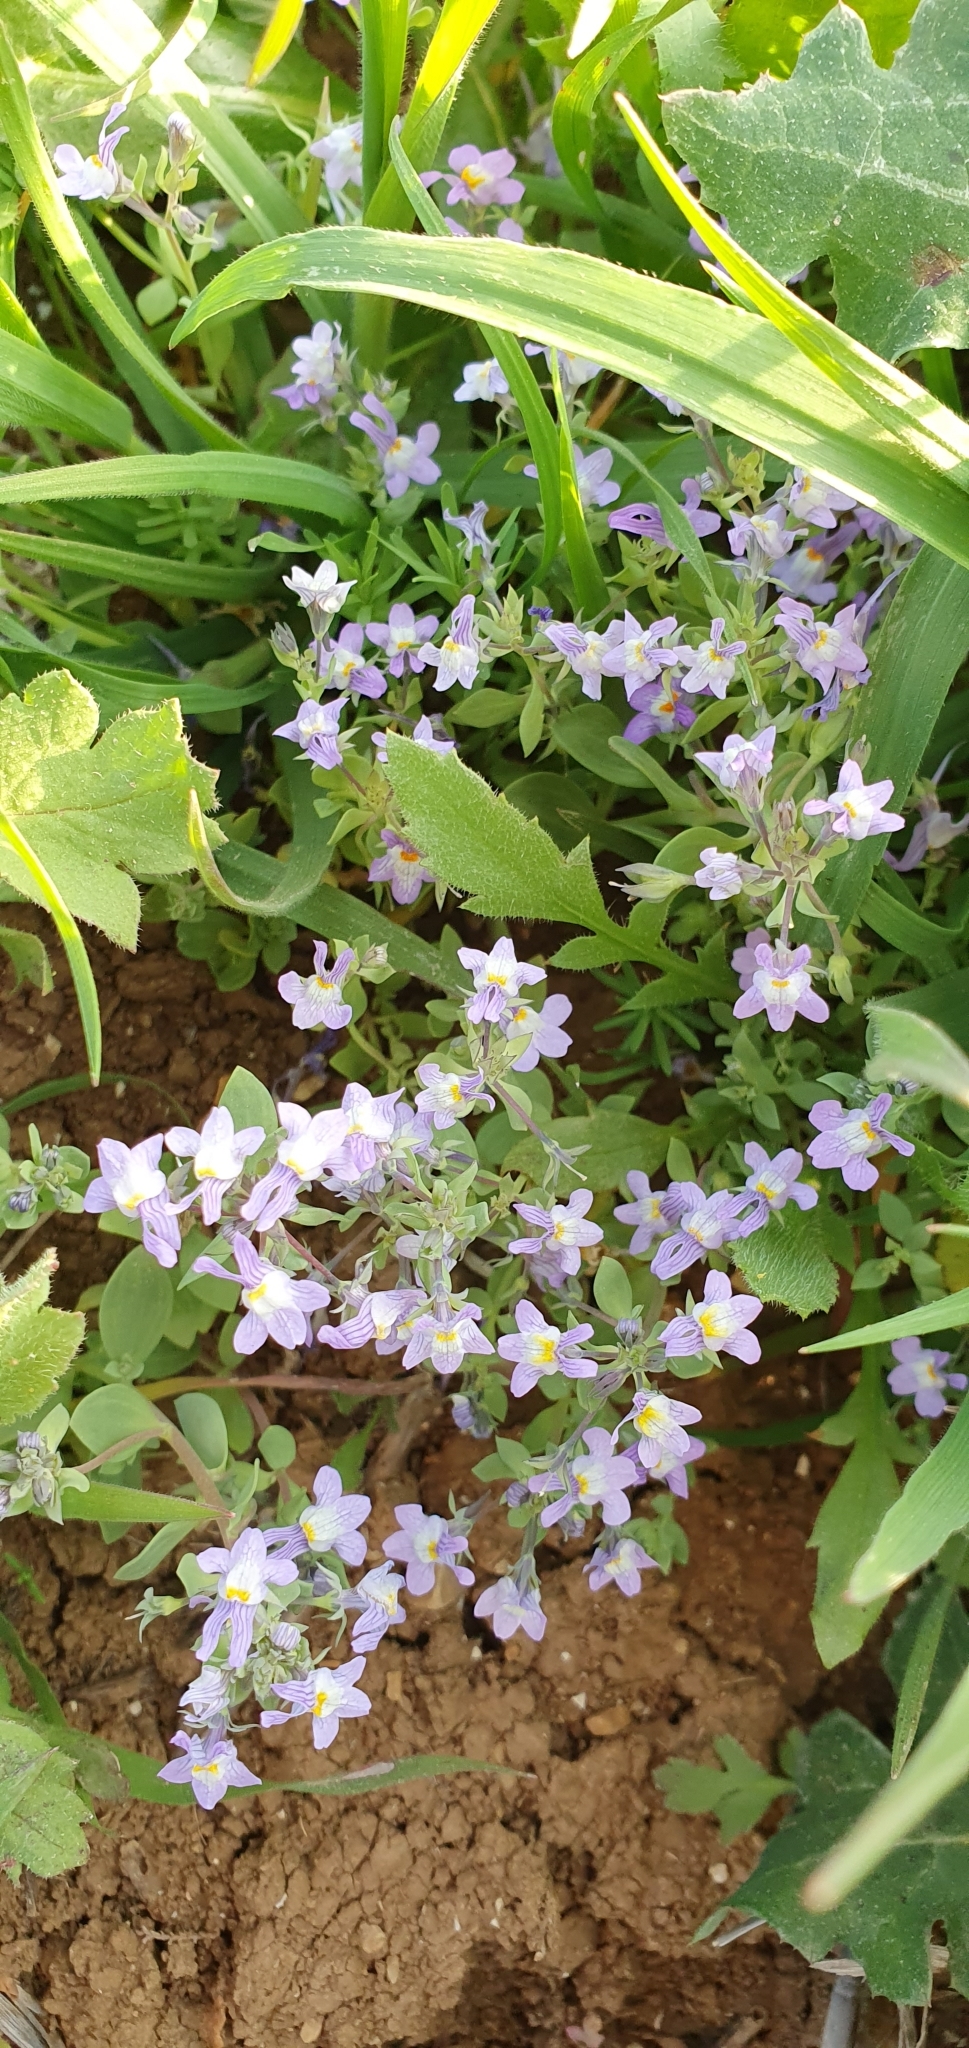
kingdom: Plantae
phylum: Tracheophyta
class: Magnoliopsida
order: Lamiales
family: Plantaginaceae
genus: Linaria
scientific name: Linaria reflexa
